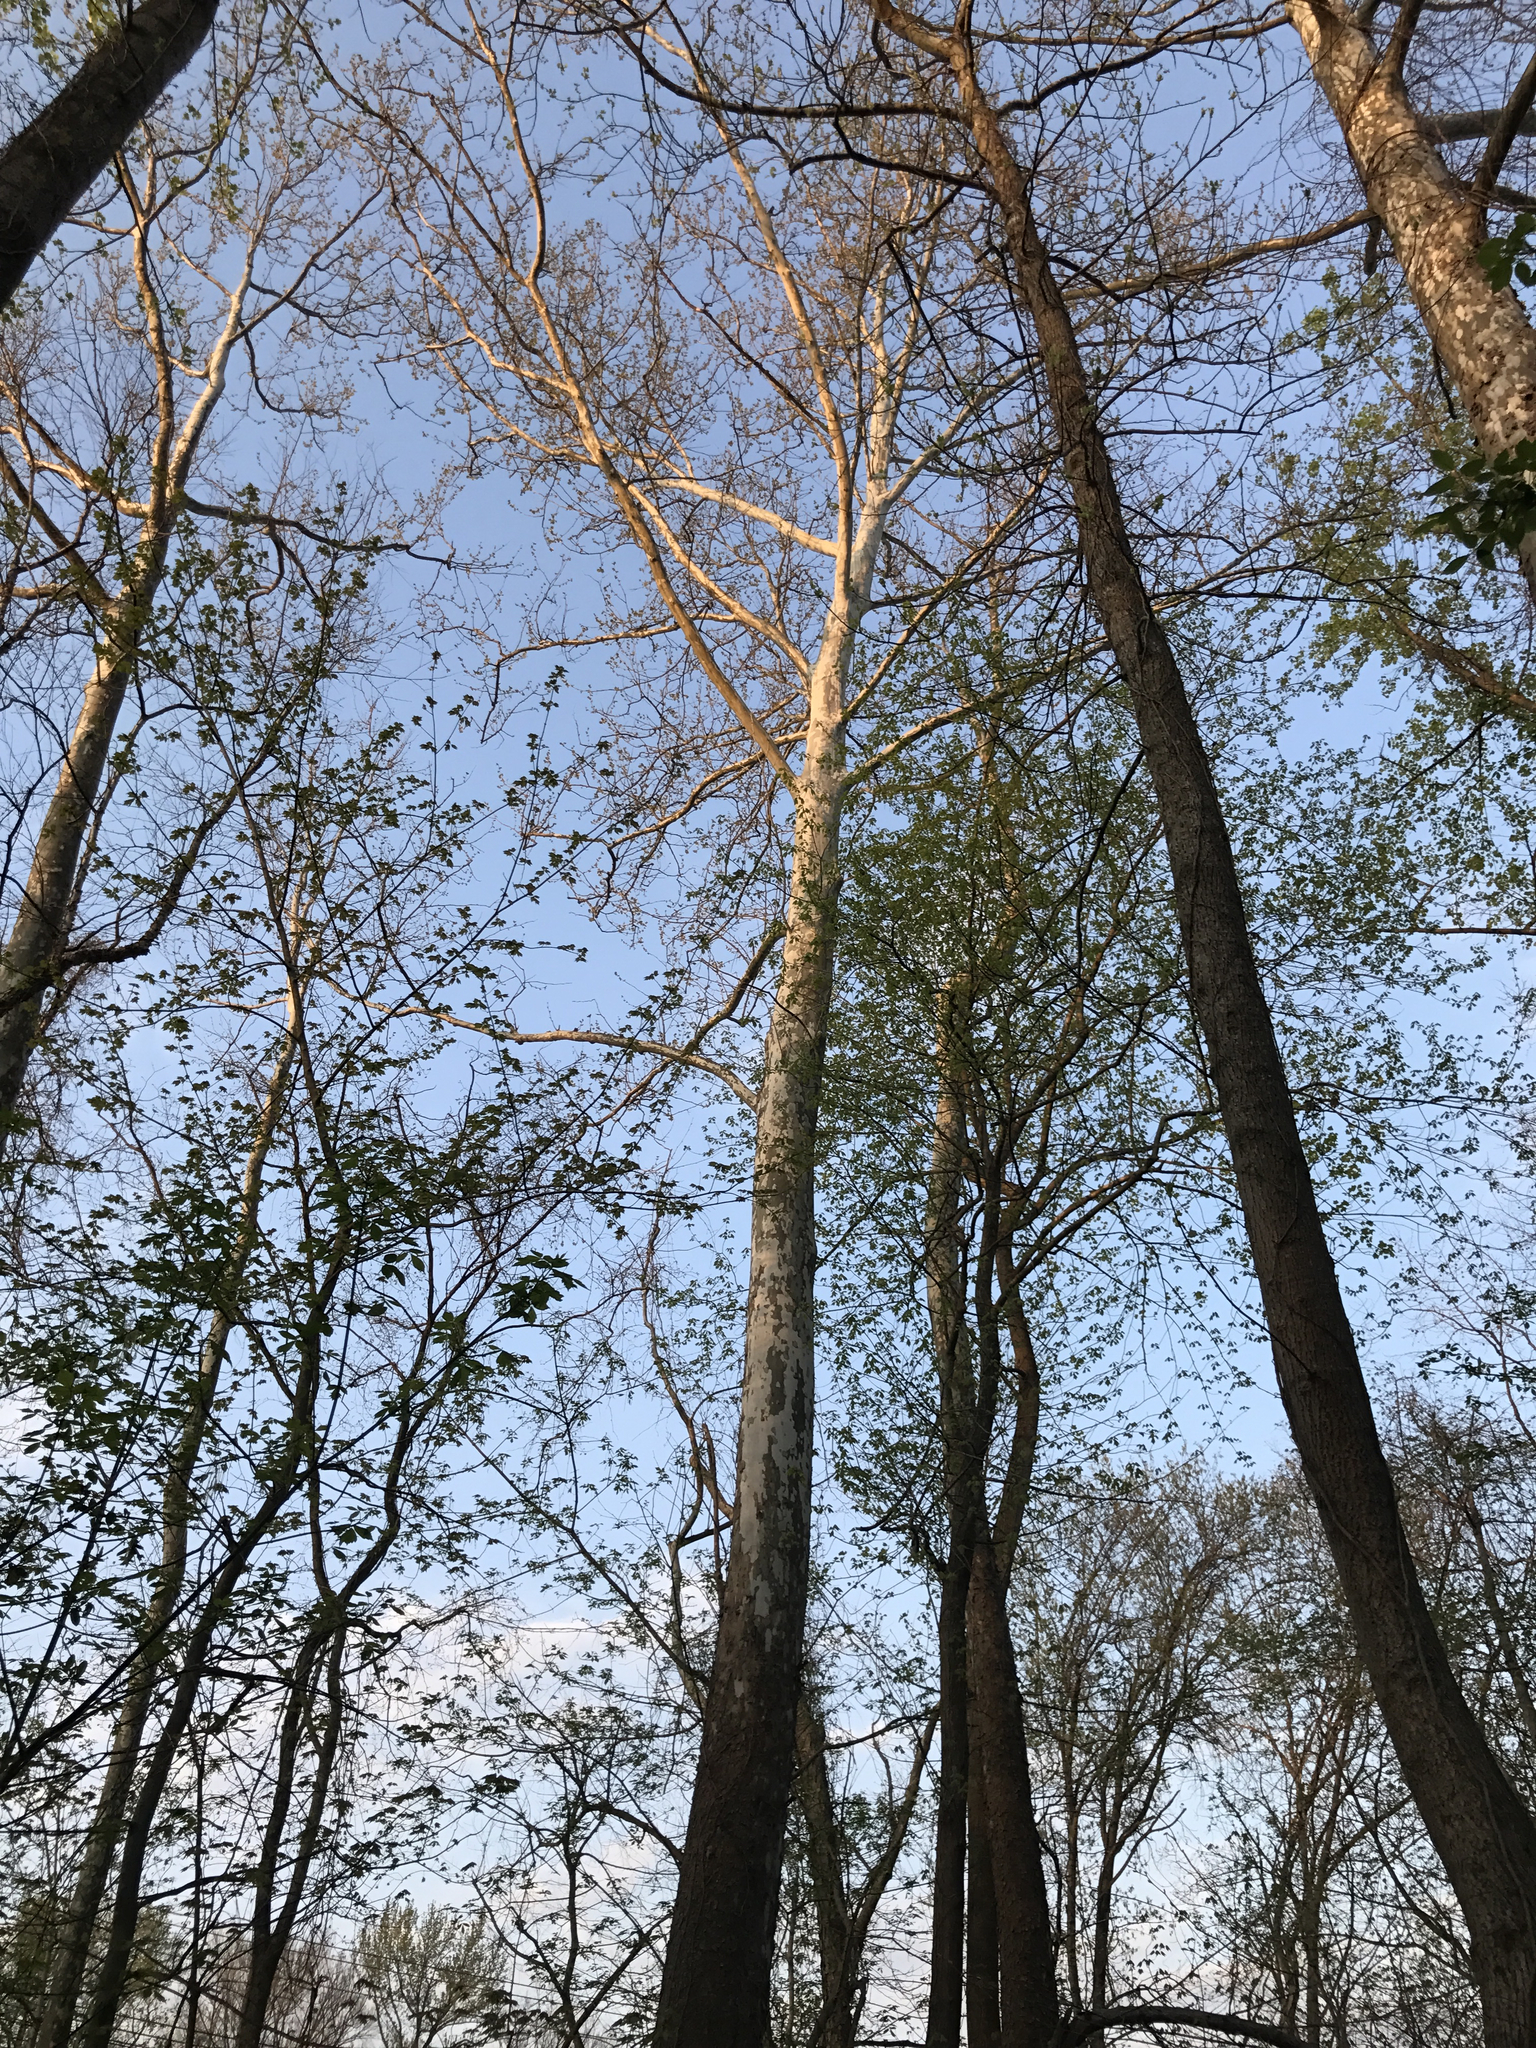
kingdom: Plantae
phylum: Tracheophyta
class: Magnoliopsida
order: Proteales
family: Platanaceae
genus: Platanus
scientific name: Platanus occidentalis
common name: American sycamore
